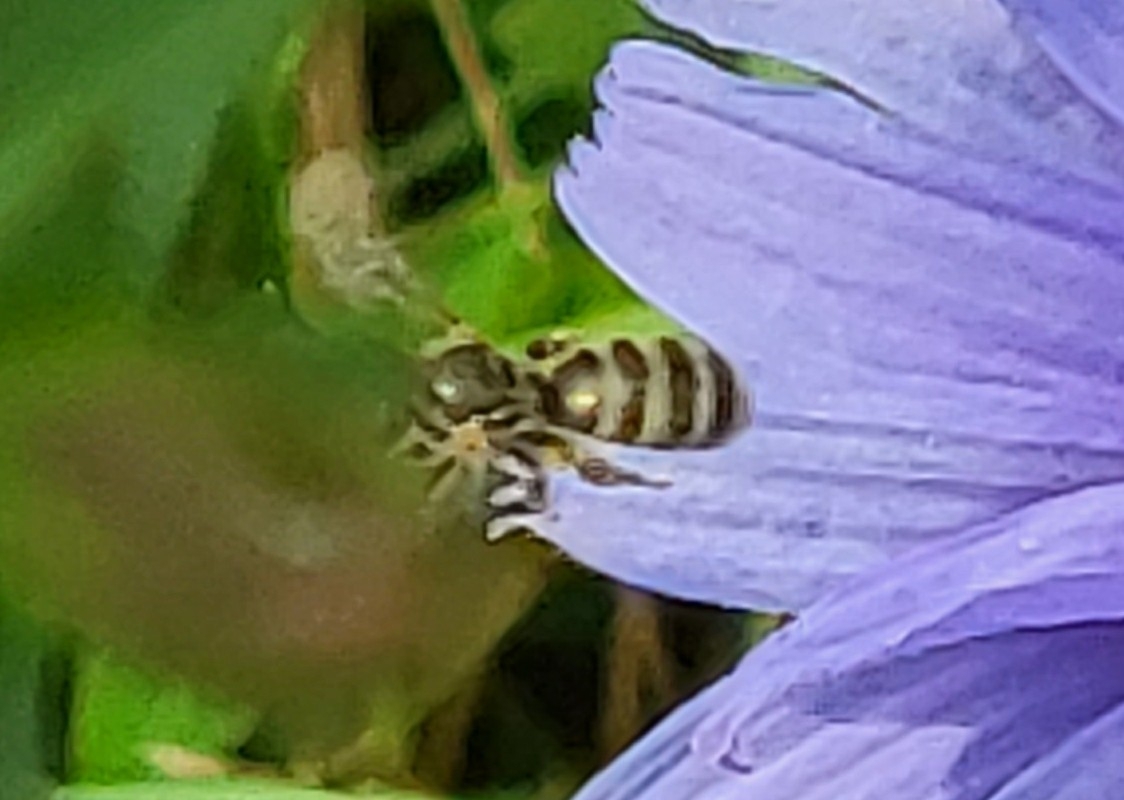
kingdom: Animalia
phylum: Arthropoda
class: Insecta
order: Hymenoptera
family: Halictidae
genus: Halictus
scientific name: Halictus confusus
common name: Southern bronze furrow bee
